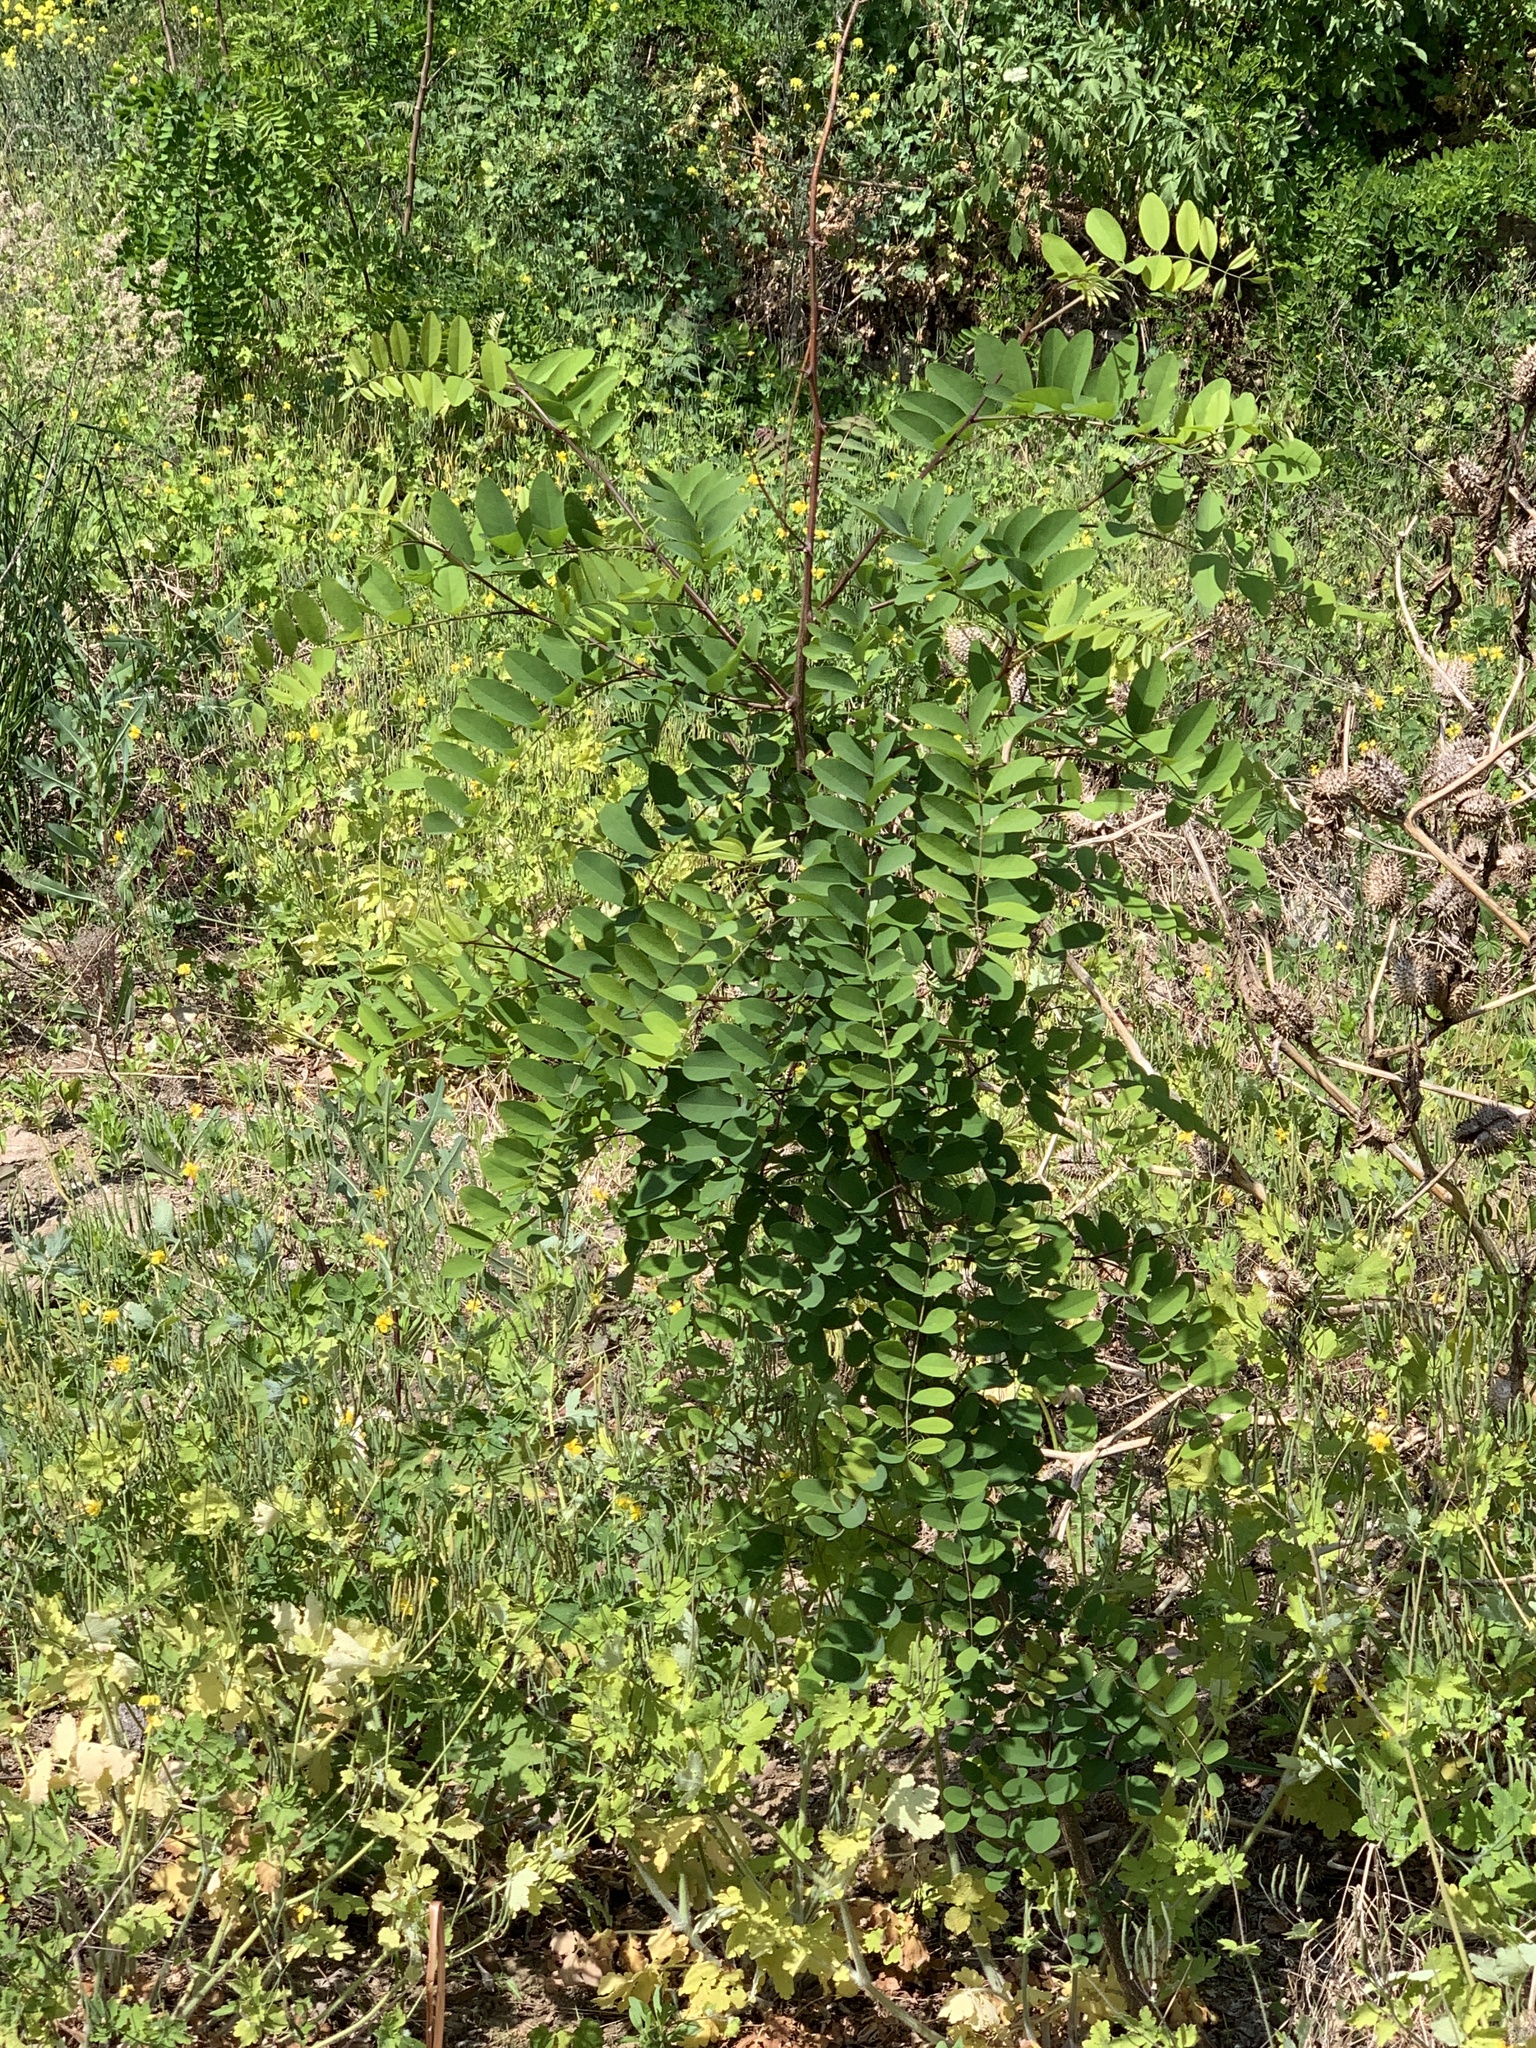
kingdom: Plantae
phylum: Tracheophyta
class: Magnoliopsida
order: Fabales
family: Fabaceae
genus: Robinia
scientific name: Robinia pseudoacacia
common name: Black locust
